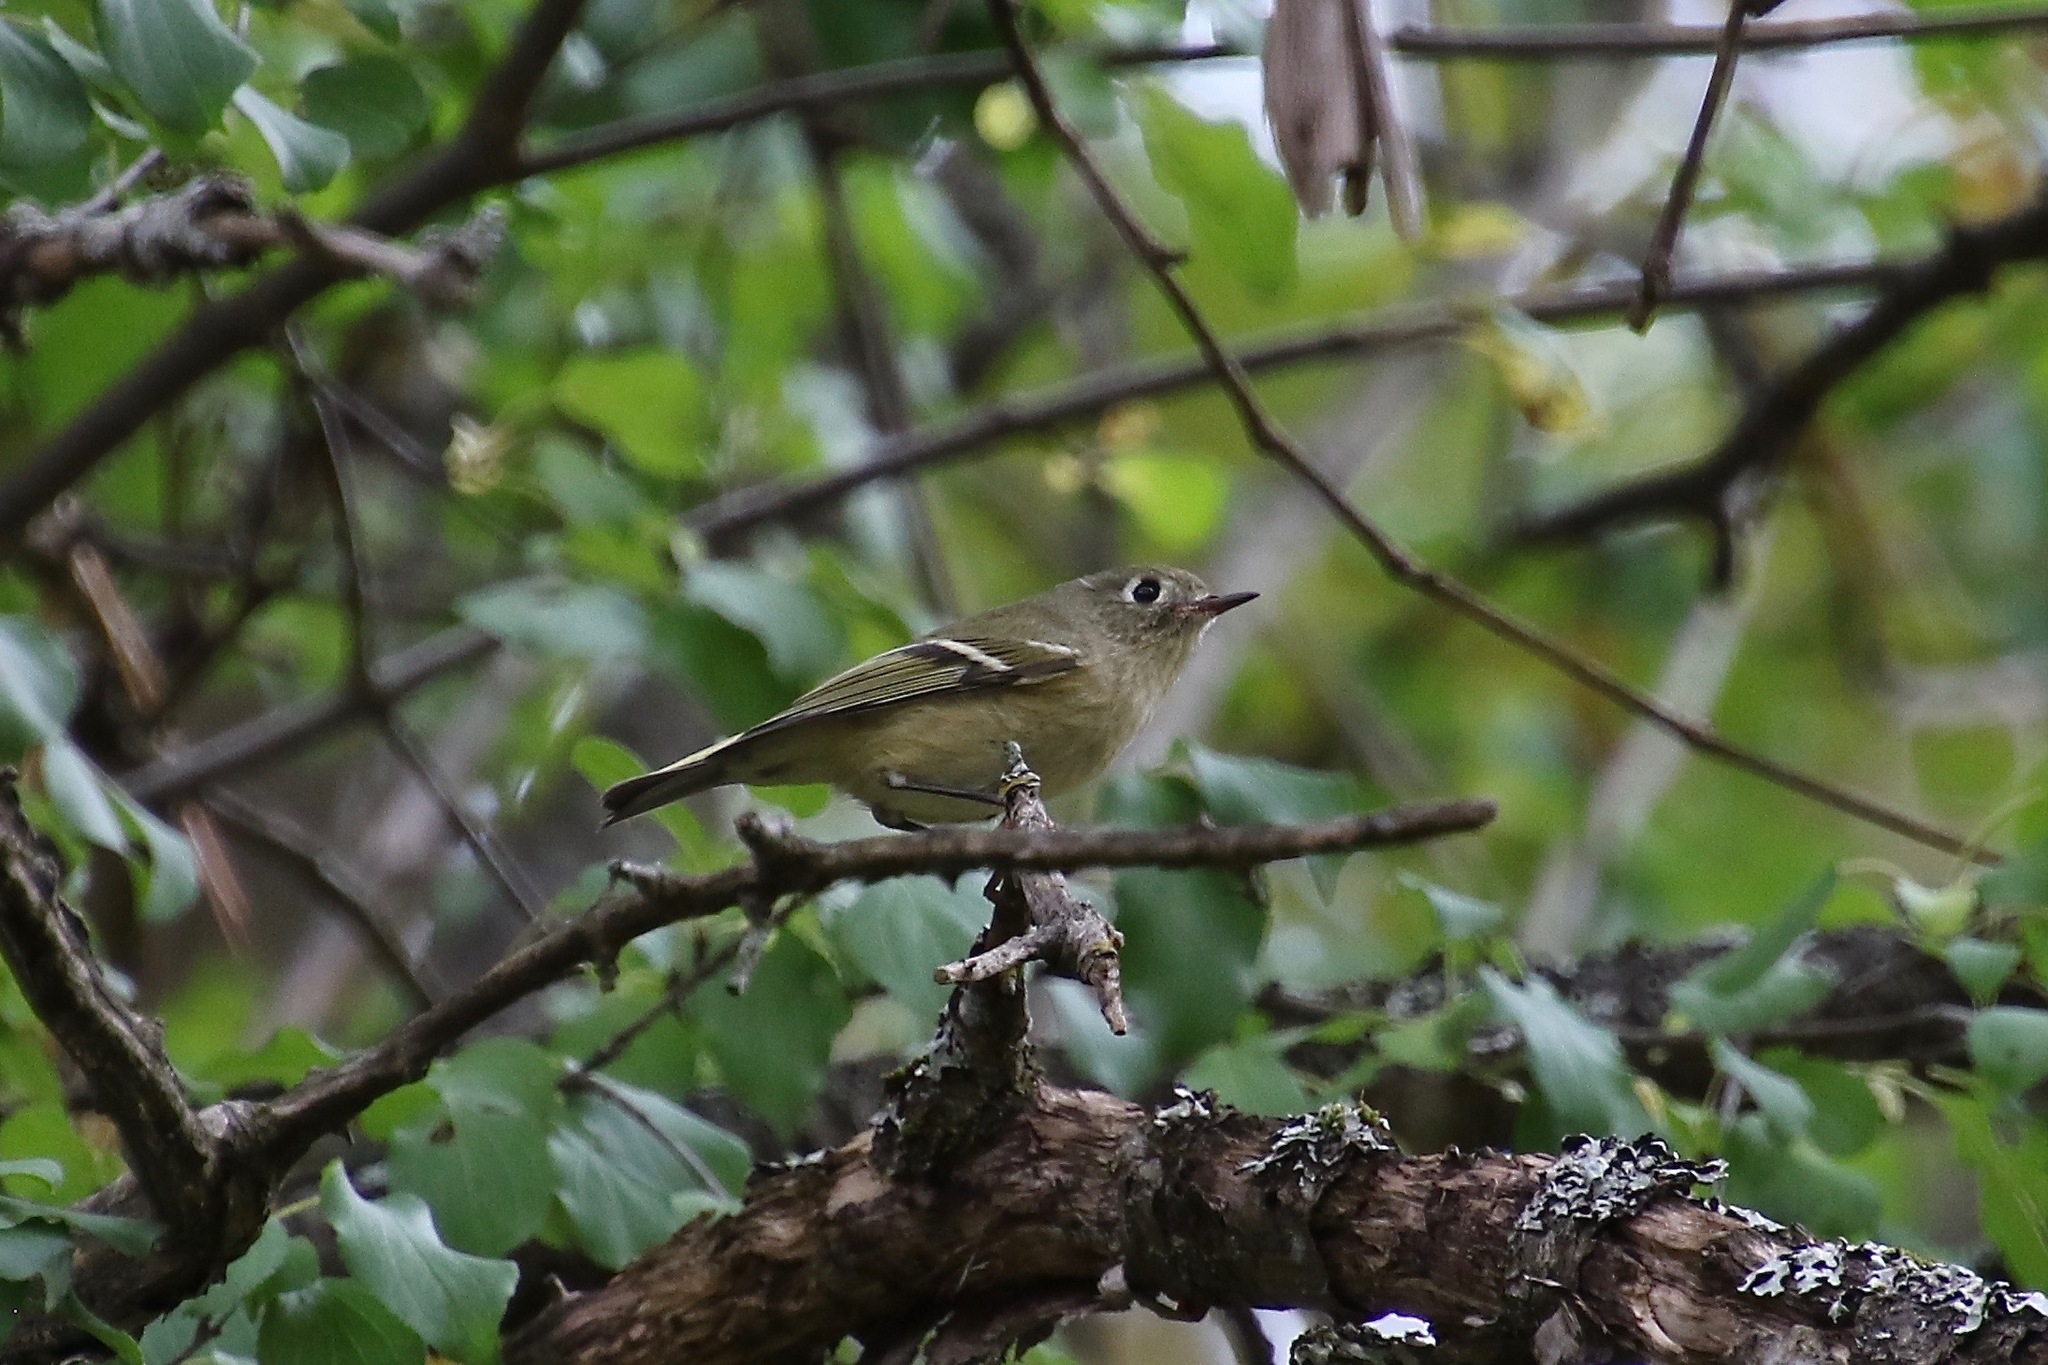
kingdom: Animalia
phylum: Chordata
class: Aves
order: Passeriformes
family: Regulidae
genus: Regulus
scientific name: Regulus calendula
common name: Ruby-crowned kinglet
